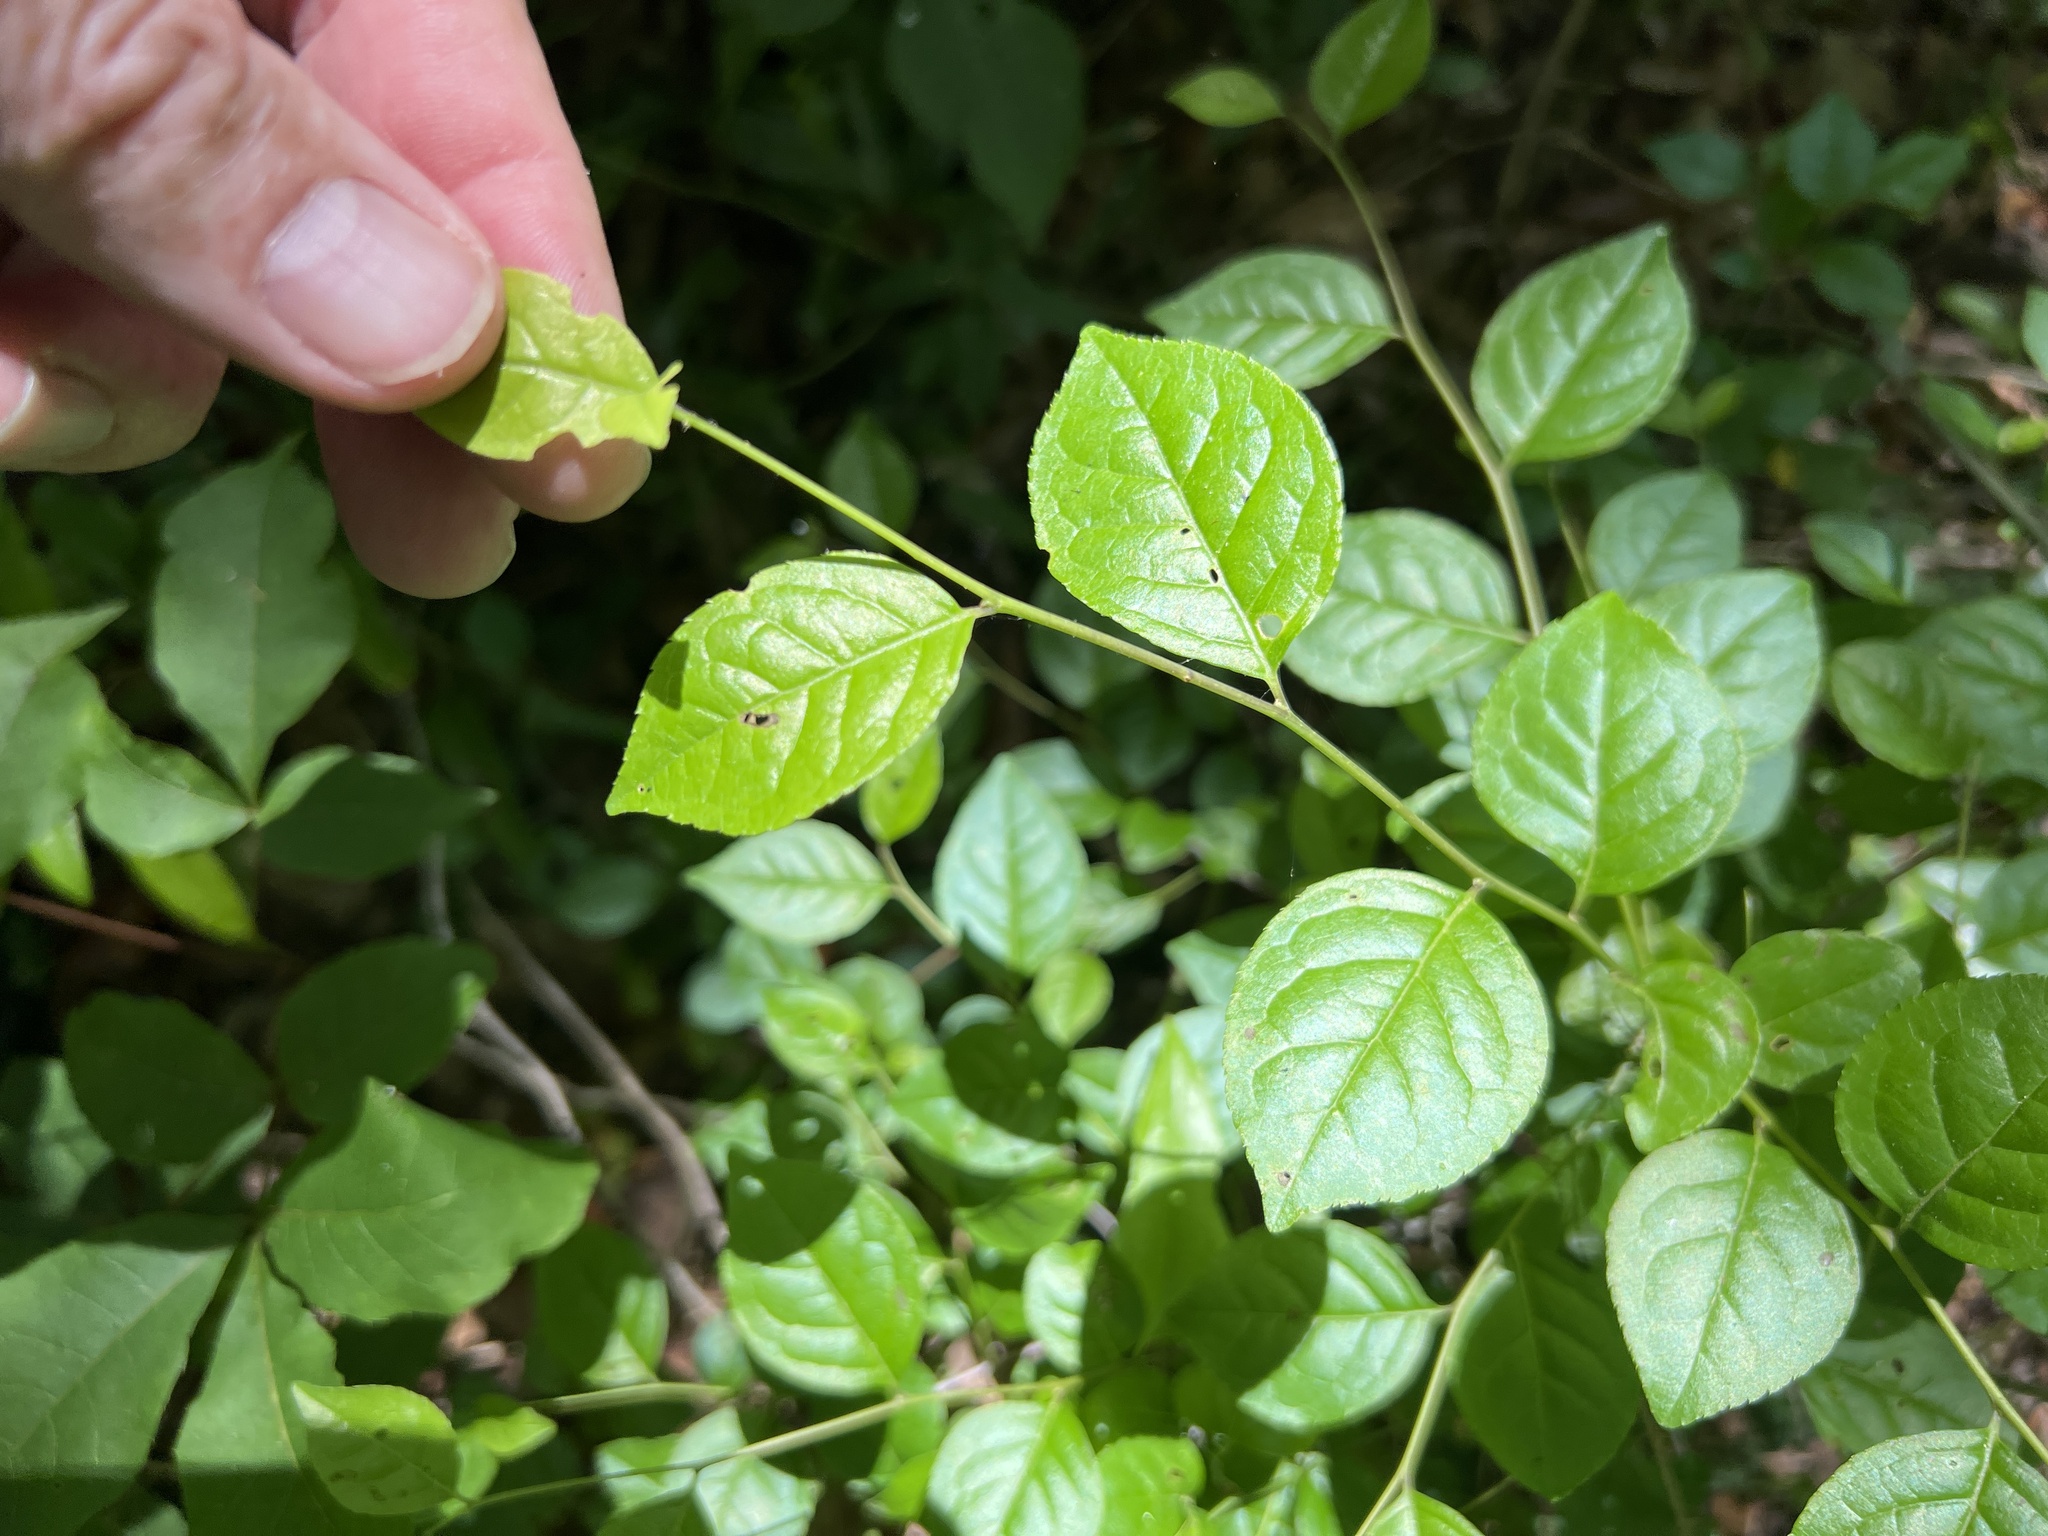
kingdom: Plantae
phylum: Tracheophyta
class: Magnoliopsida
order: Aquifoliales
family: Aquifoliaceae
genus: Ilex
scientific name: Ilex ambigua
